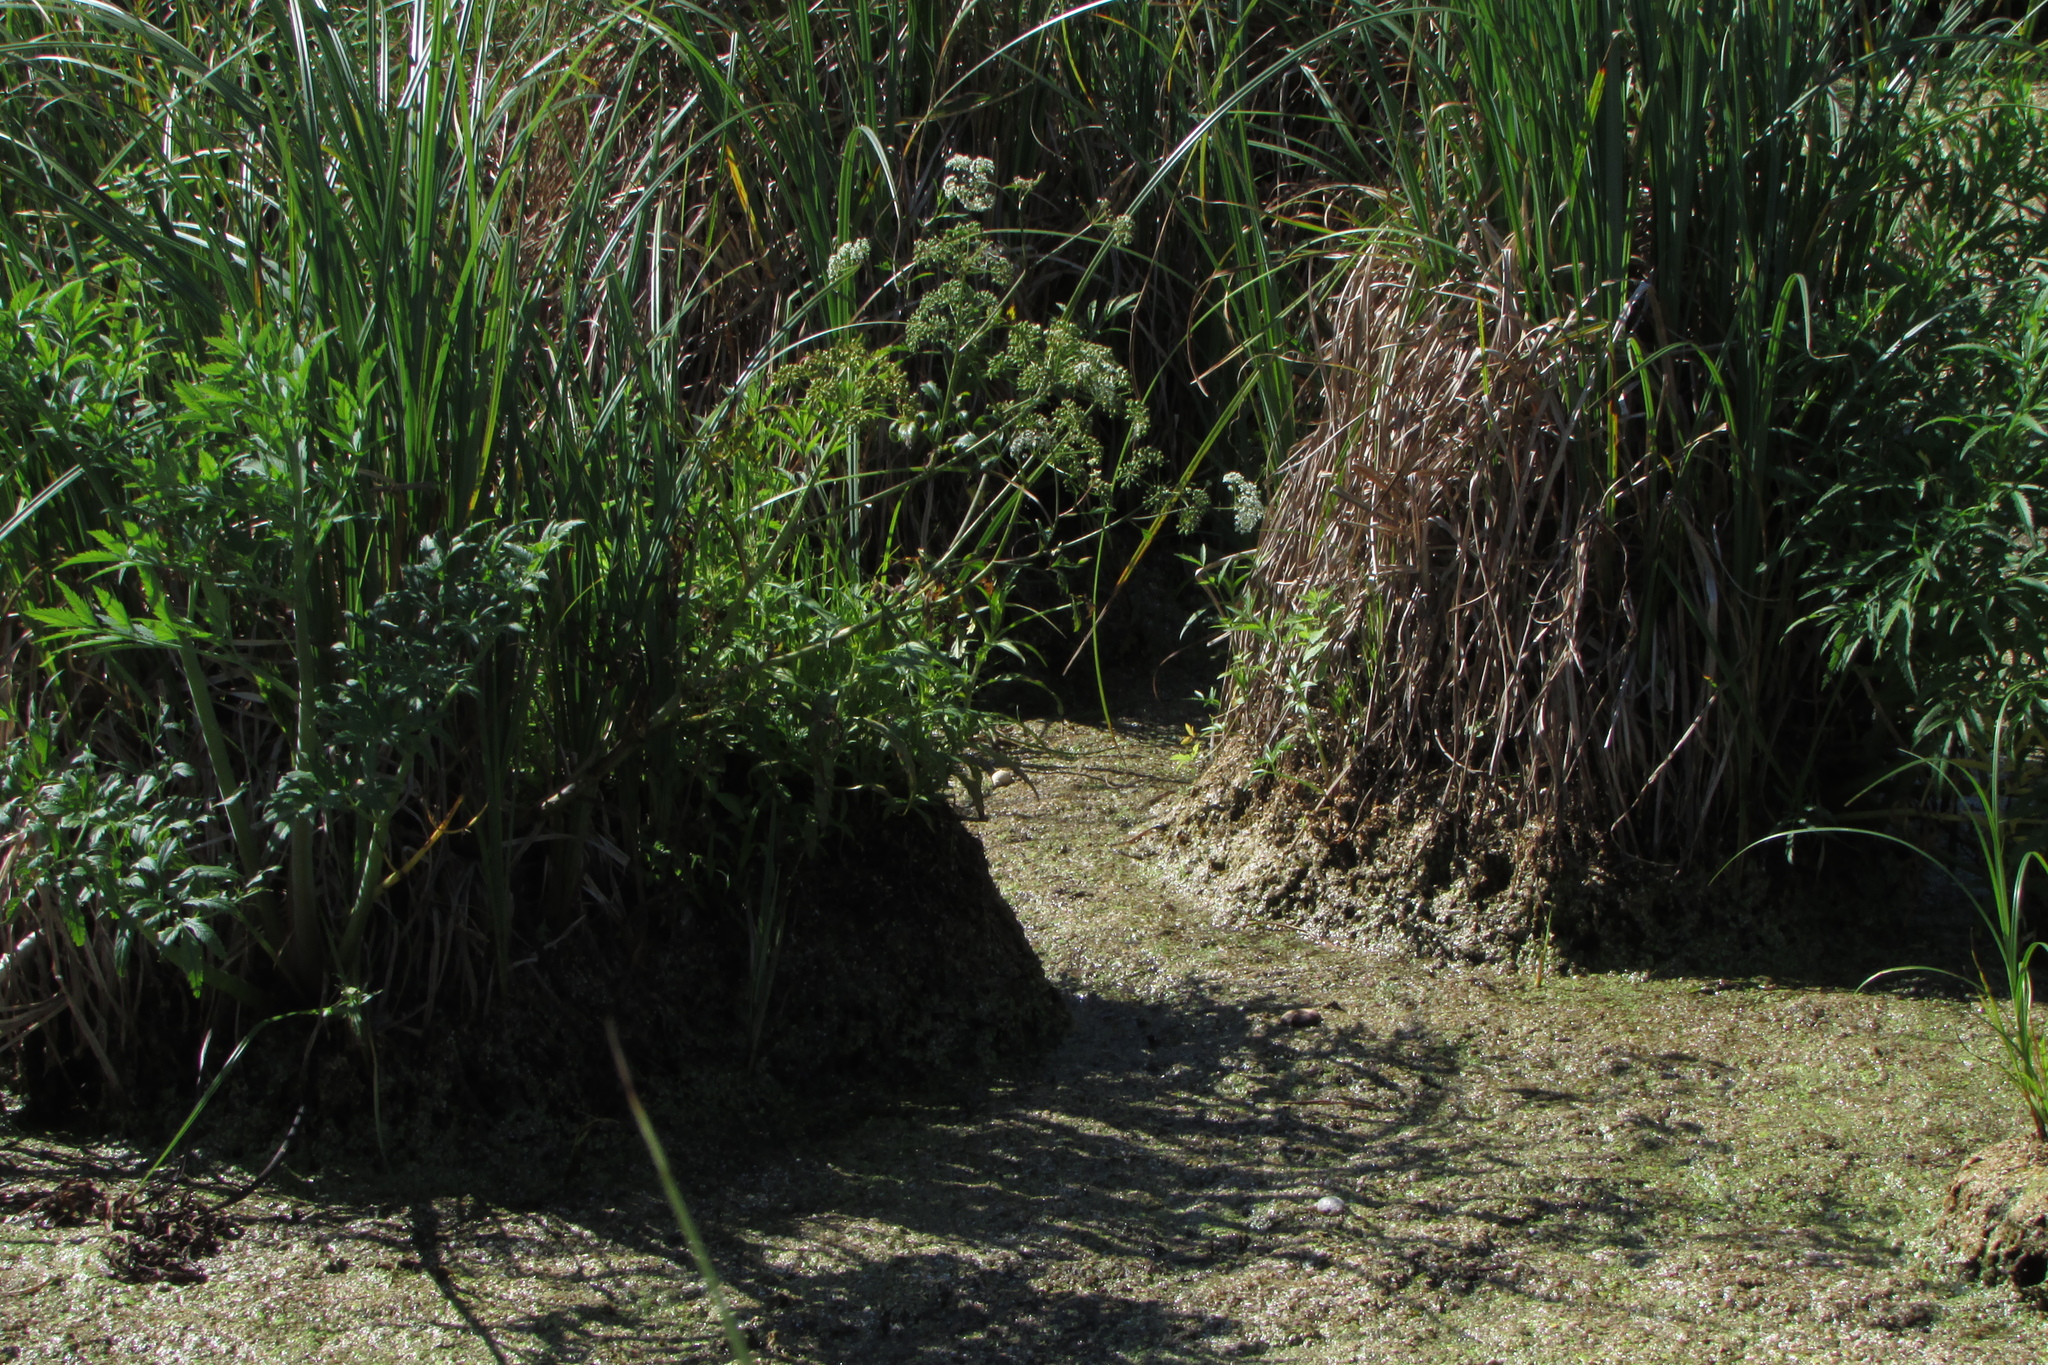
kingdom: Plantae
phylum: Tracheophyta
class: Magnoliopsida
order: Apiales
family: Apiaceae
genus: Cicuta
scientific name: Cicuta virosa
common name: Cowbane
